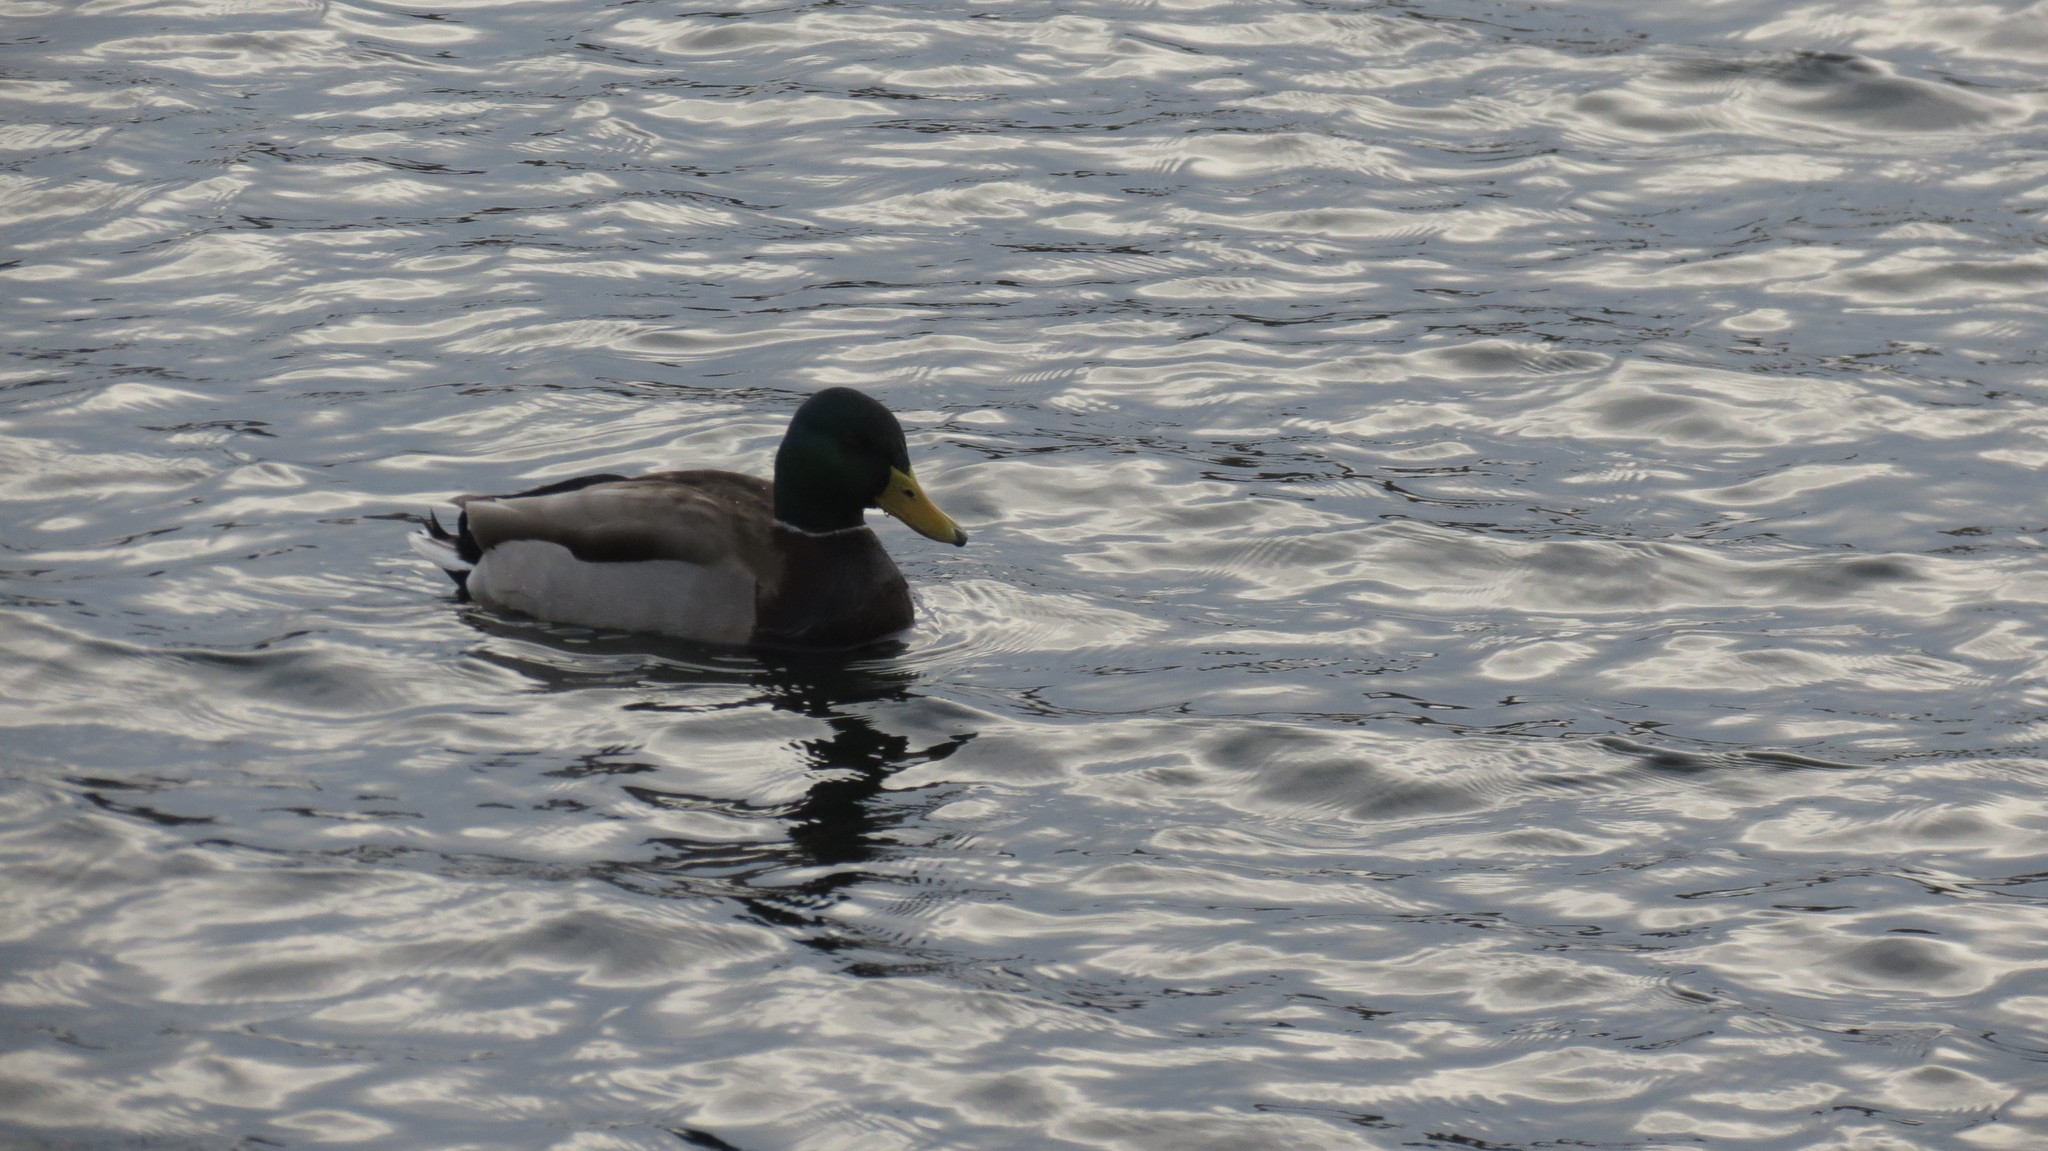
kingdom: Animalia
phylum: Chordata
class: Aves
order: Anseriformes
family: Anatidae
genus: Anas
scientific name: Anas platyrhynchos
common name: Mallard
